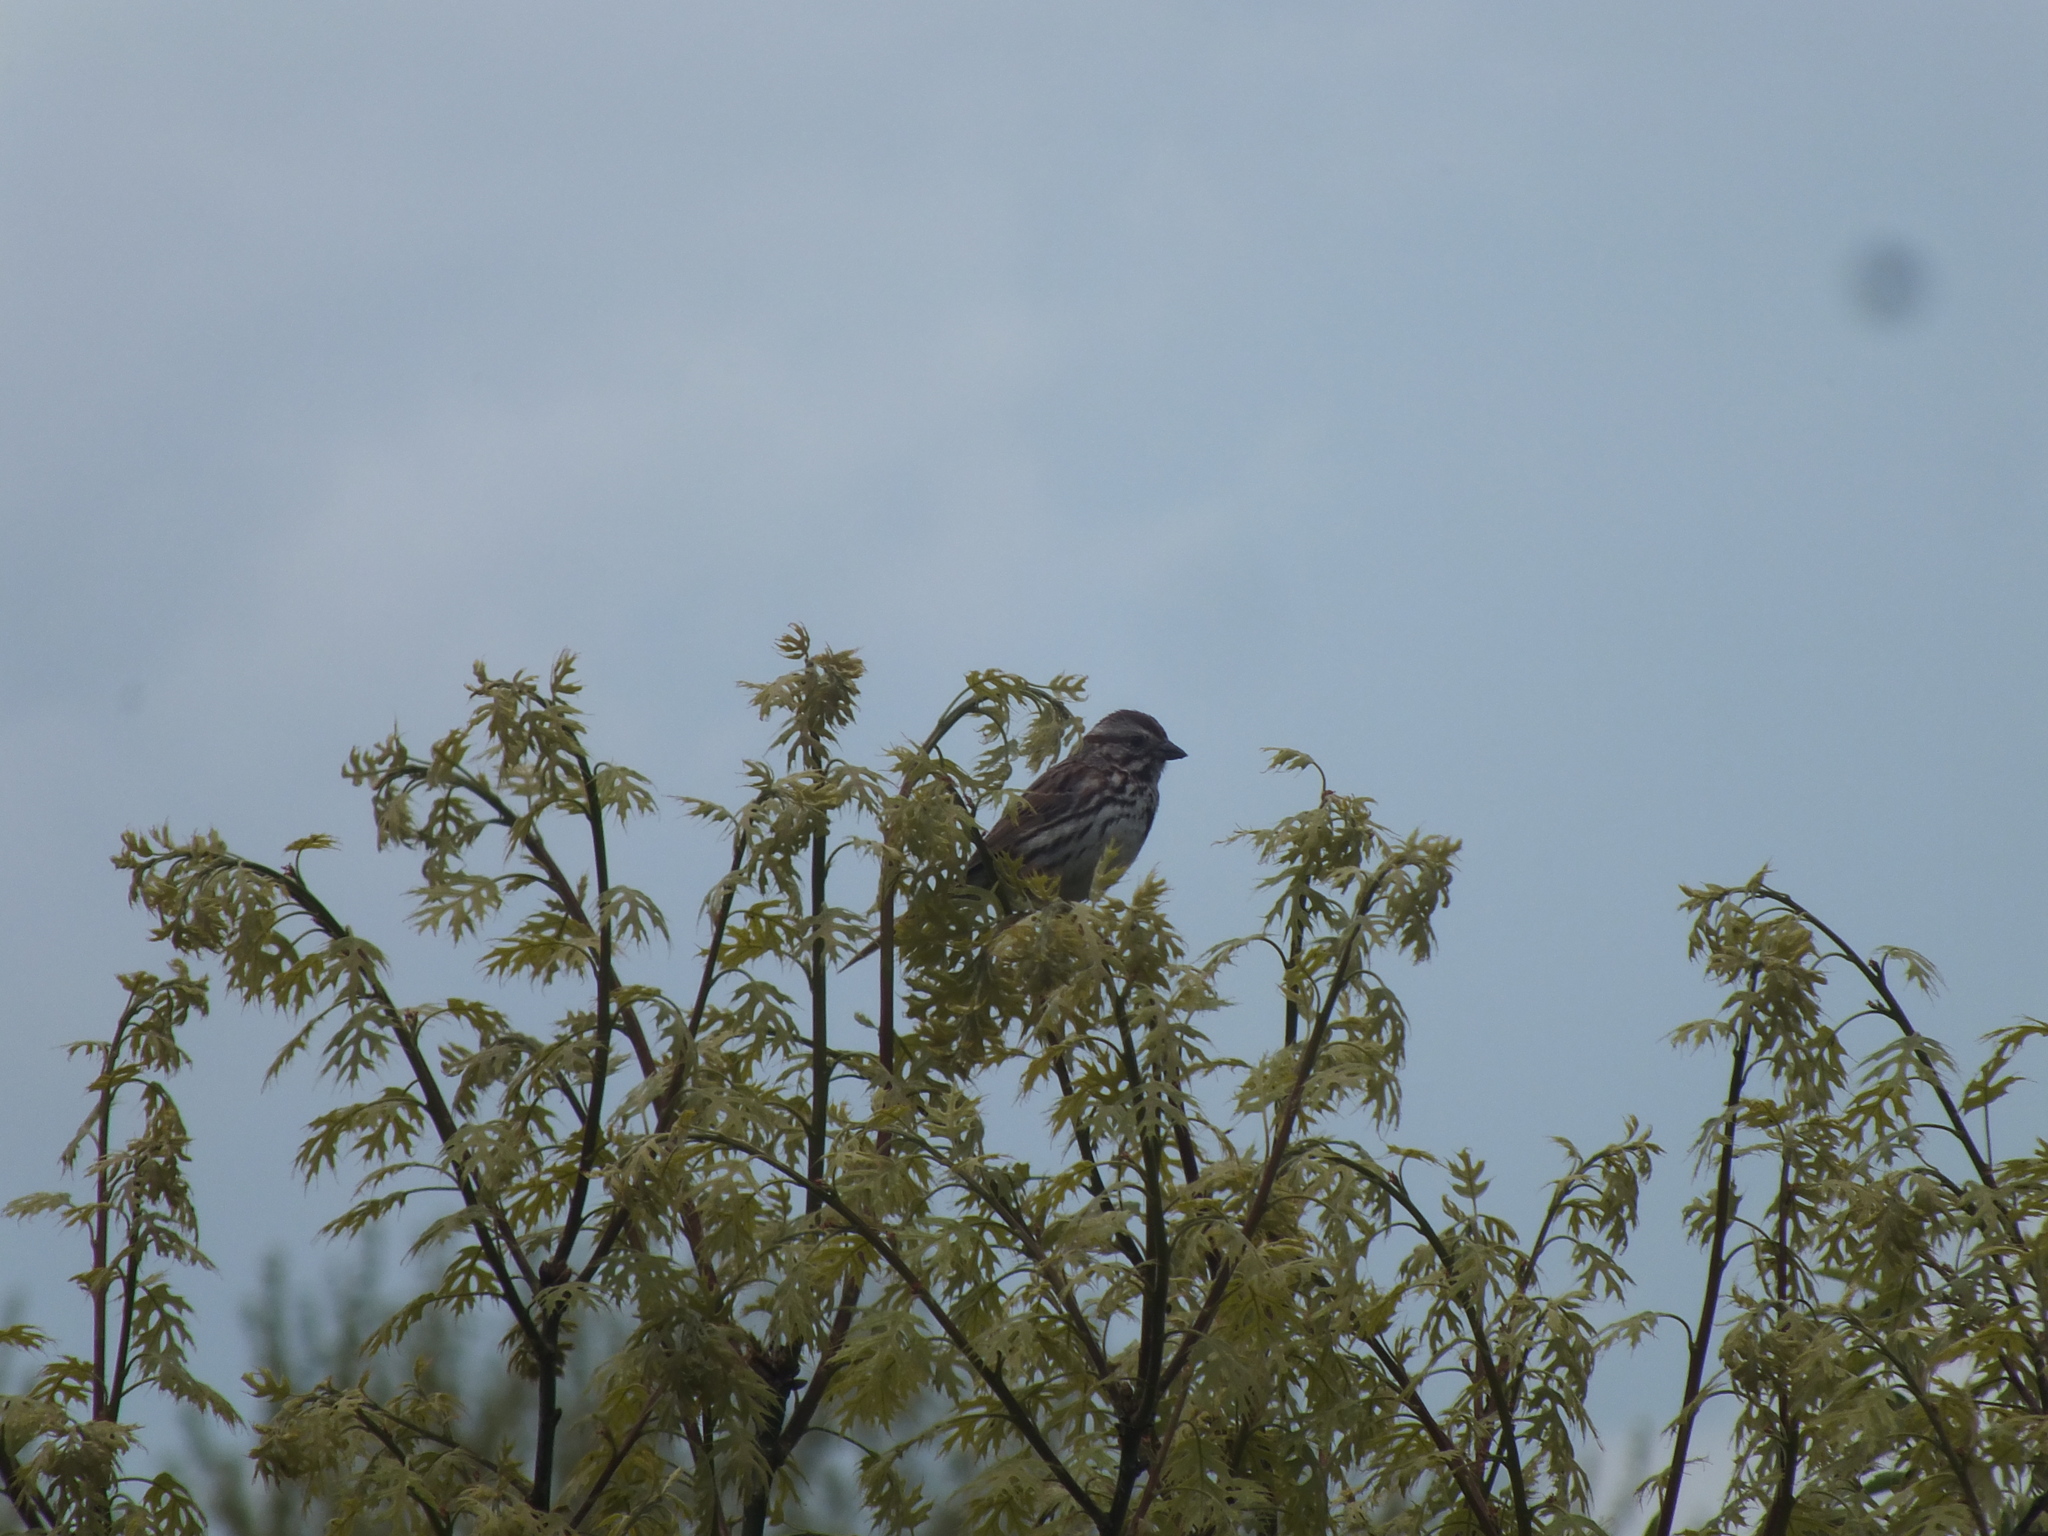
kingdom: Animalia
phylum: Chordata
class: Aves
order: Passeriformes
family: Passerellidae
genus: Melospiza
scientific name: Melospiza melodia
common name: Song sparrow
